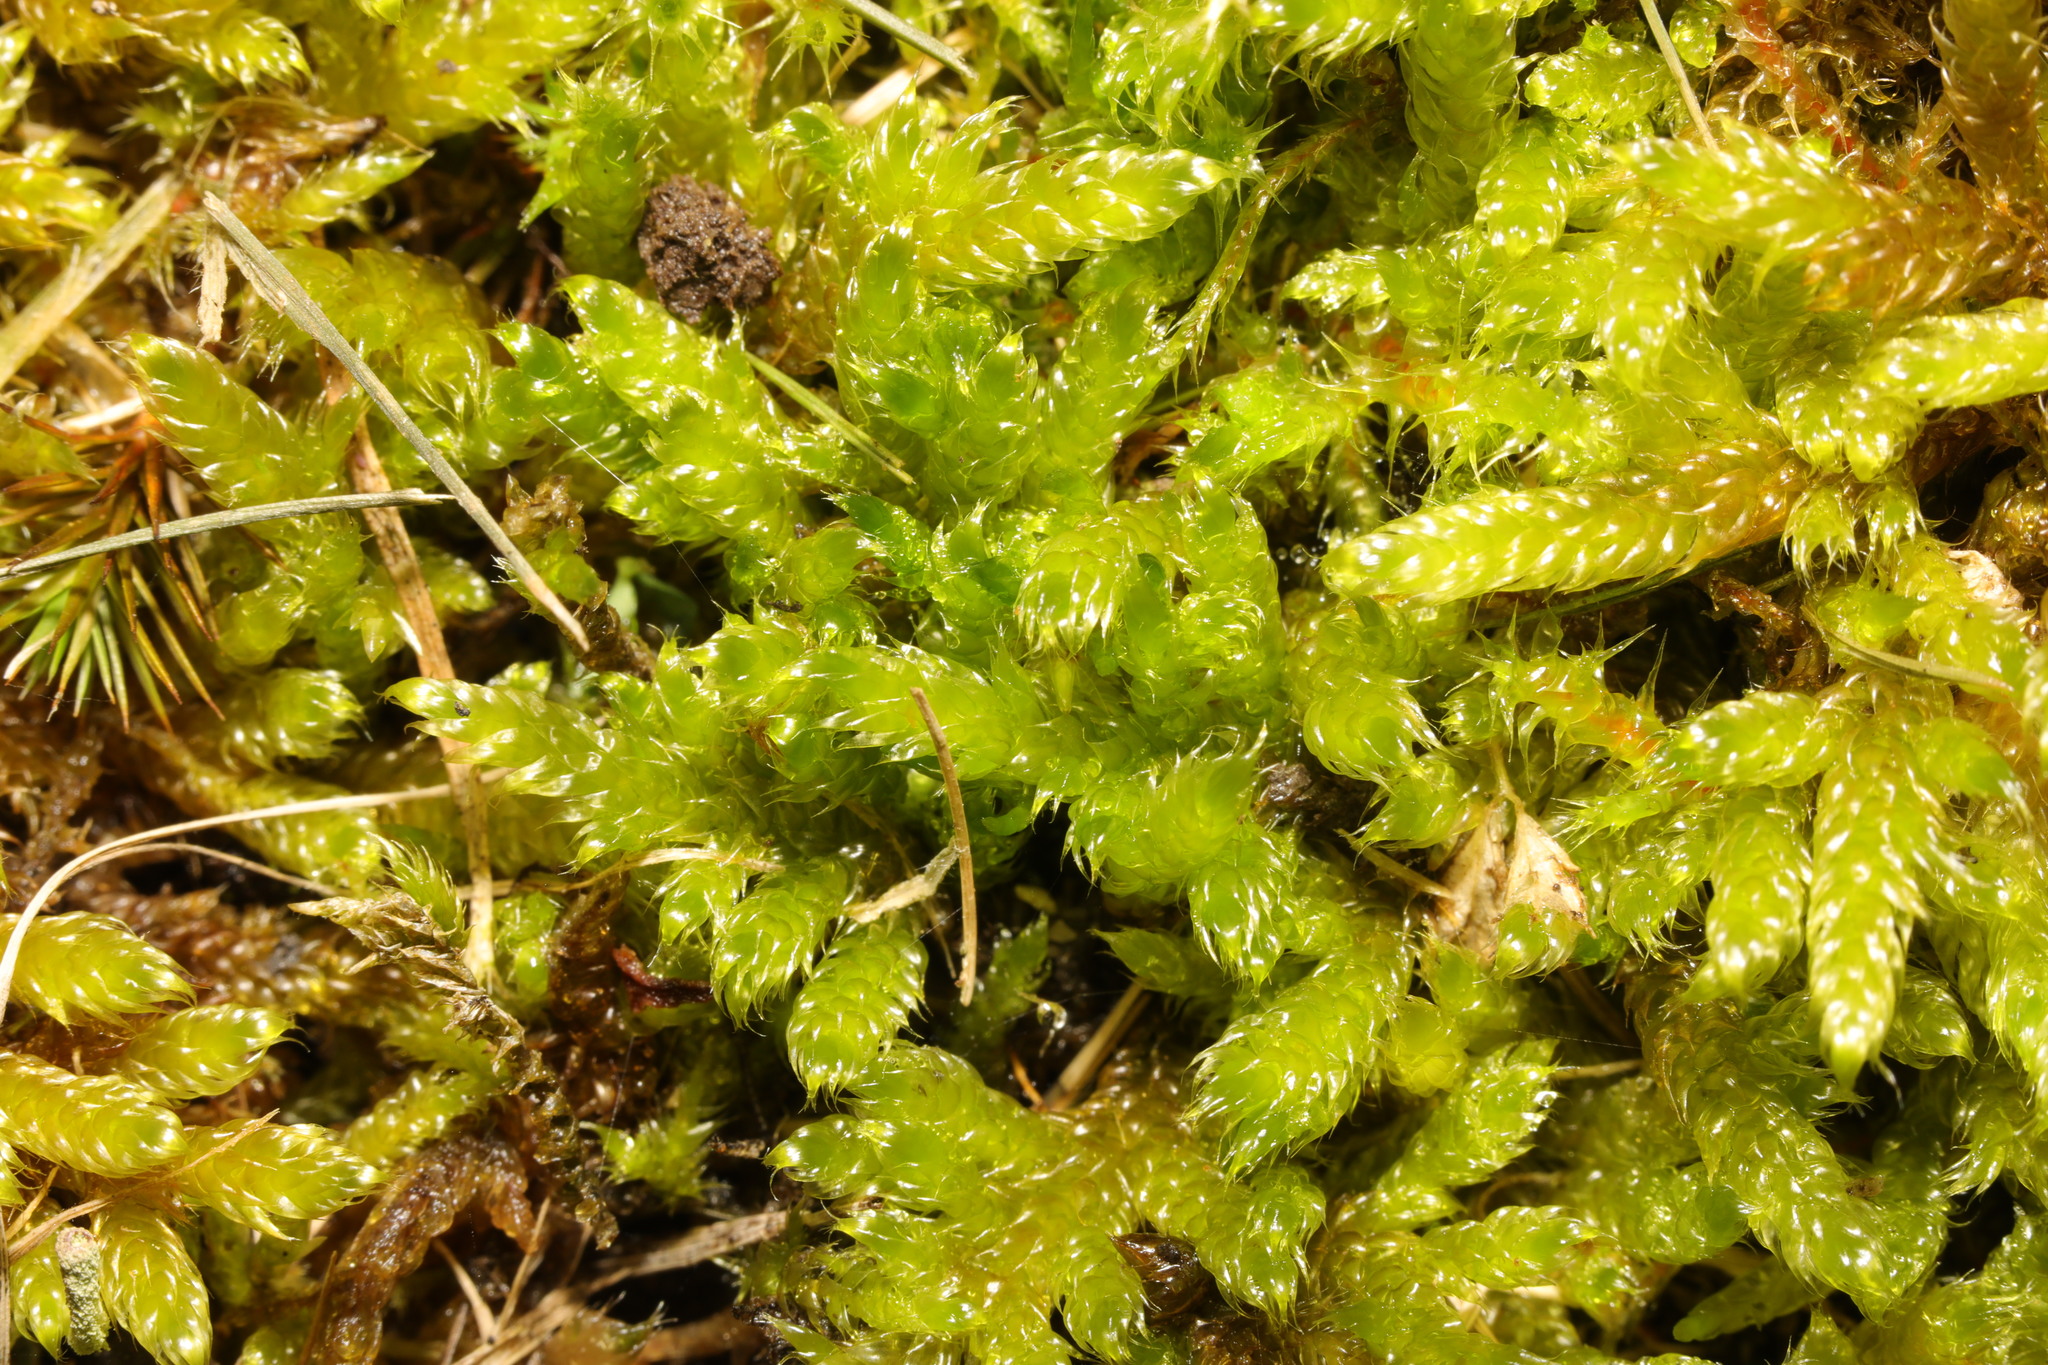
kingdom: Plantae
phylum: Bryophyta
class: Bryopsida
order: Hypnales
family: Hypnaceae
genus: Hypnum
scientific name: Hypnum cupressiforme
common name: Cypress-leaved plait-moss
